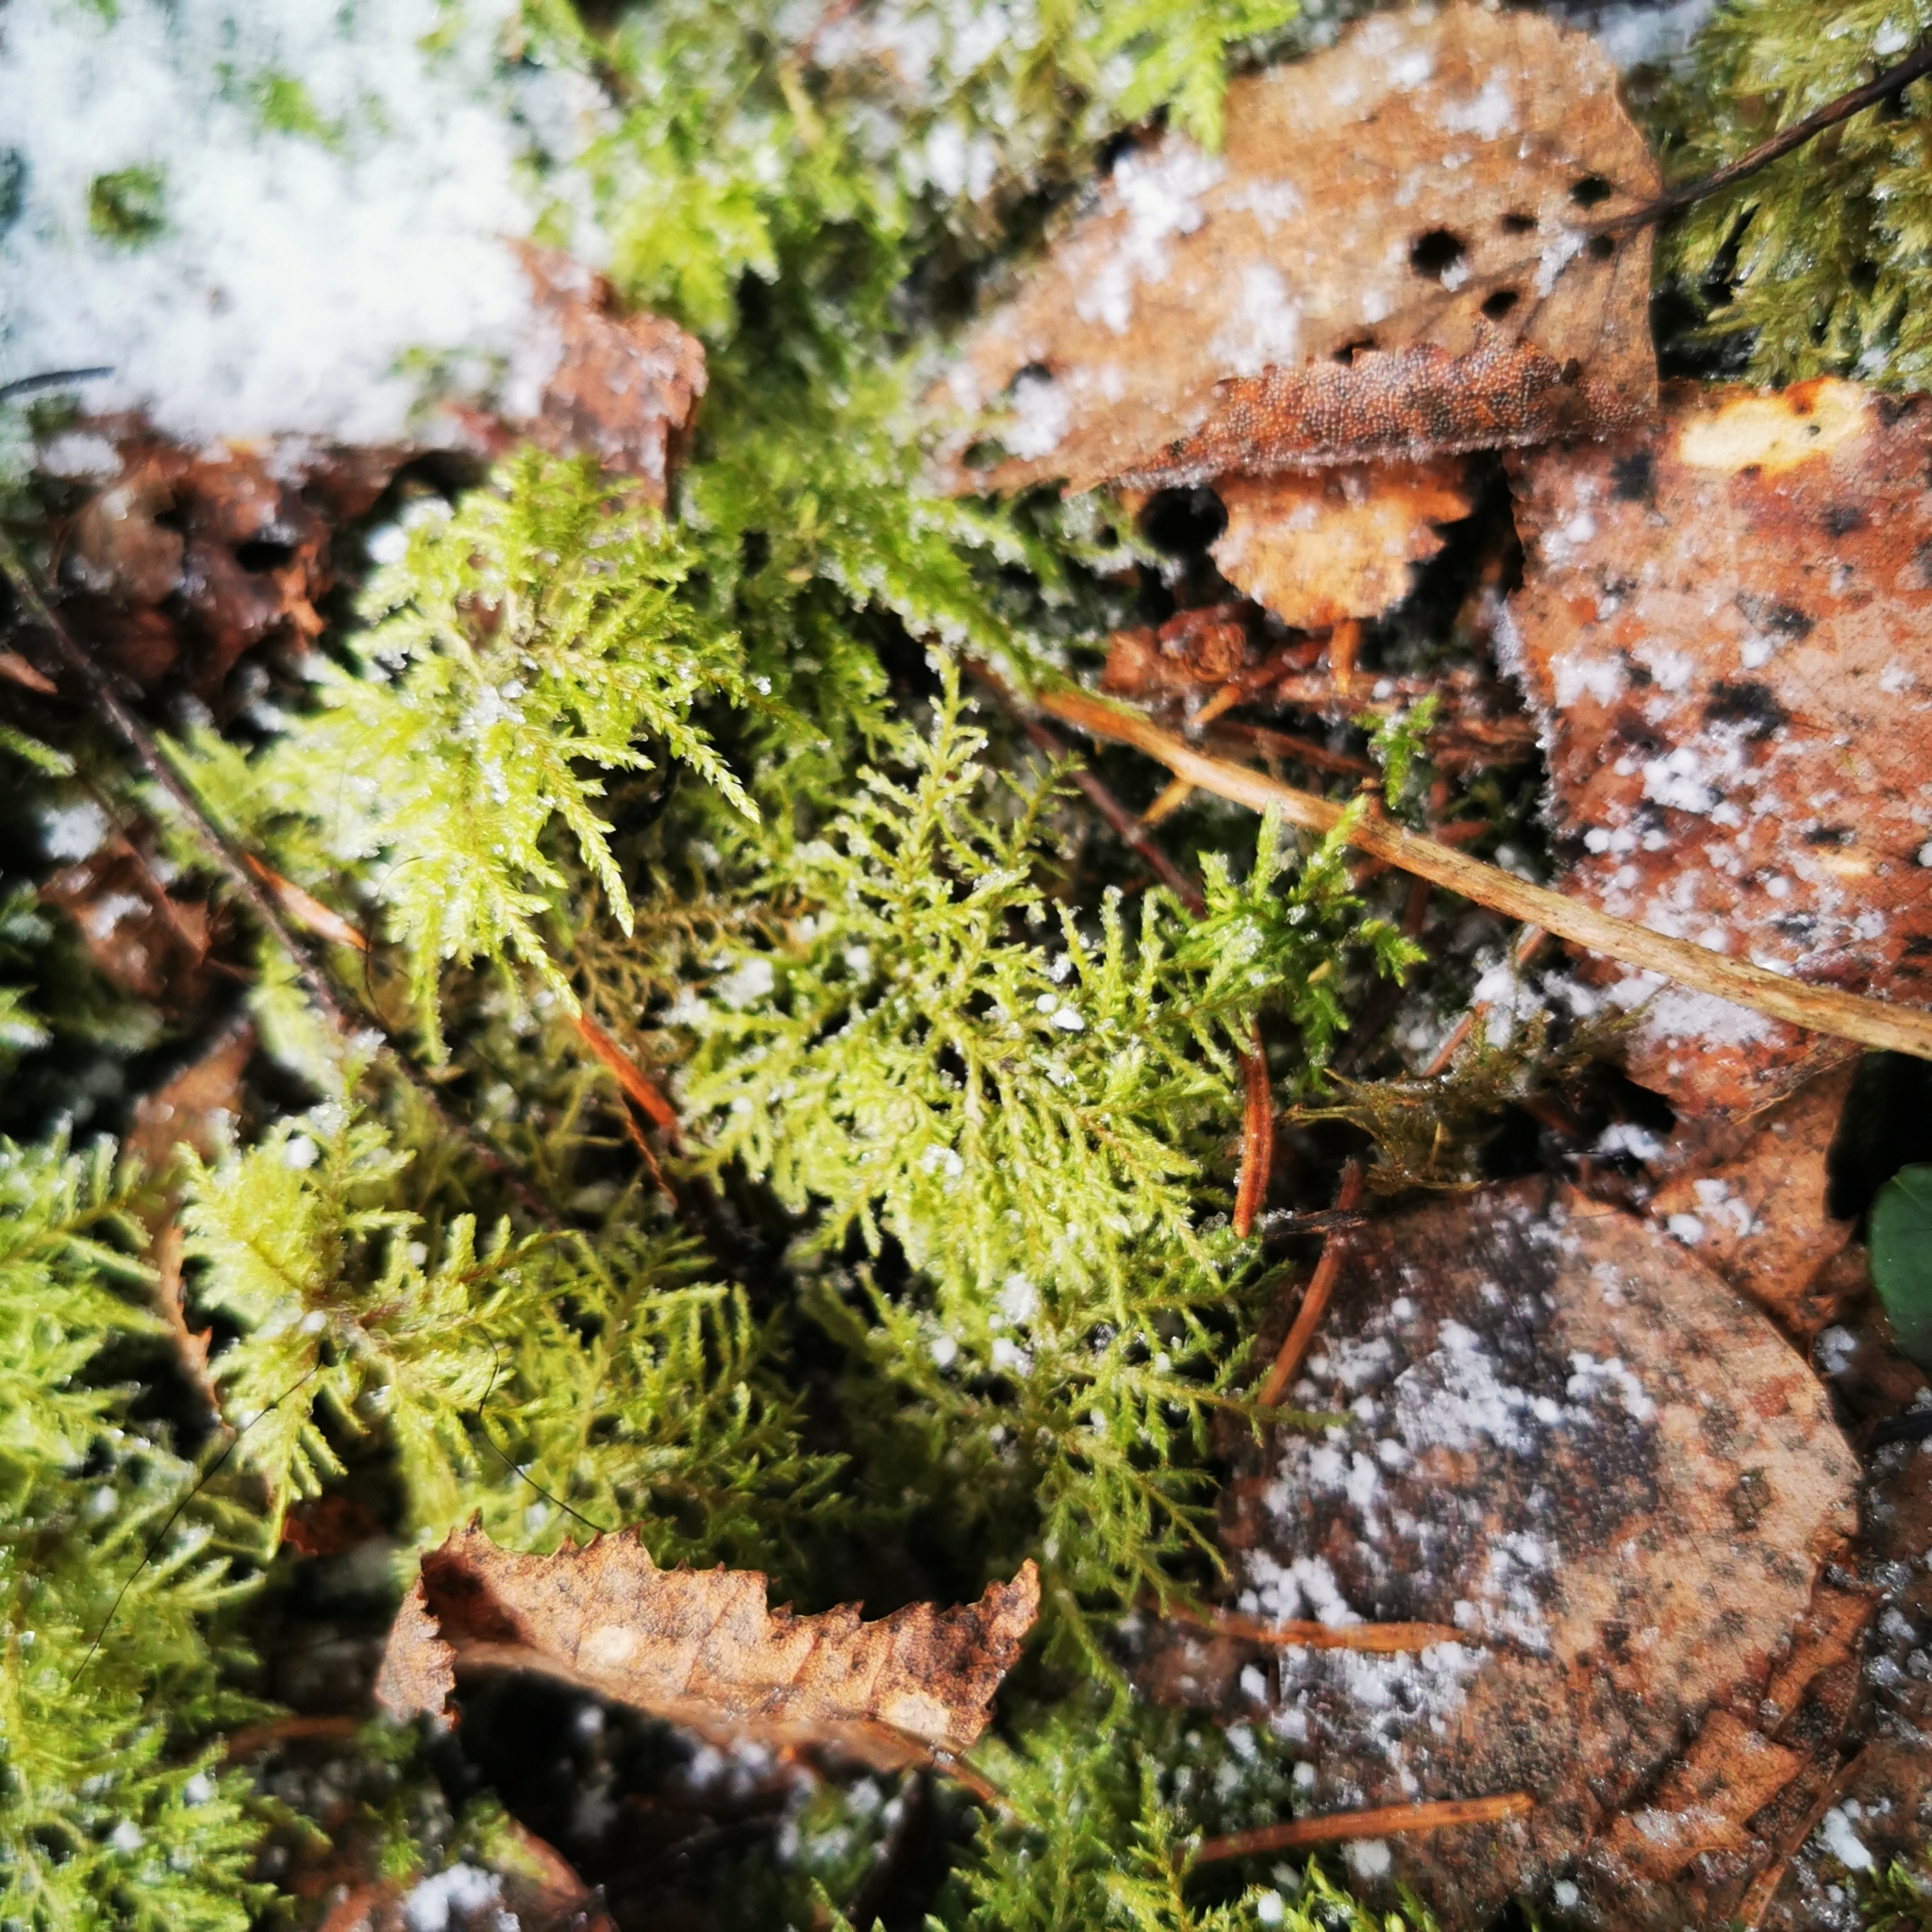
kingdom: Plantae
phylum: Bryophyta
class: Bryopsida
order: Hypnales
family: Hylocomiaceae
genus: Hylocomium
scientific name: Hylocomium splendens
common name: Stairstep moss
